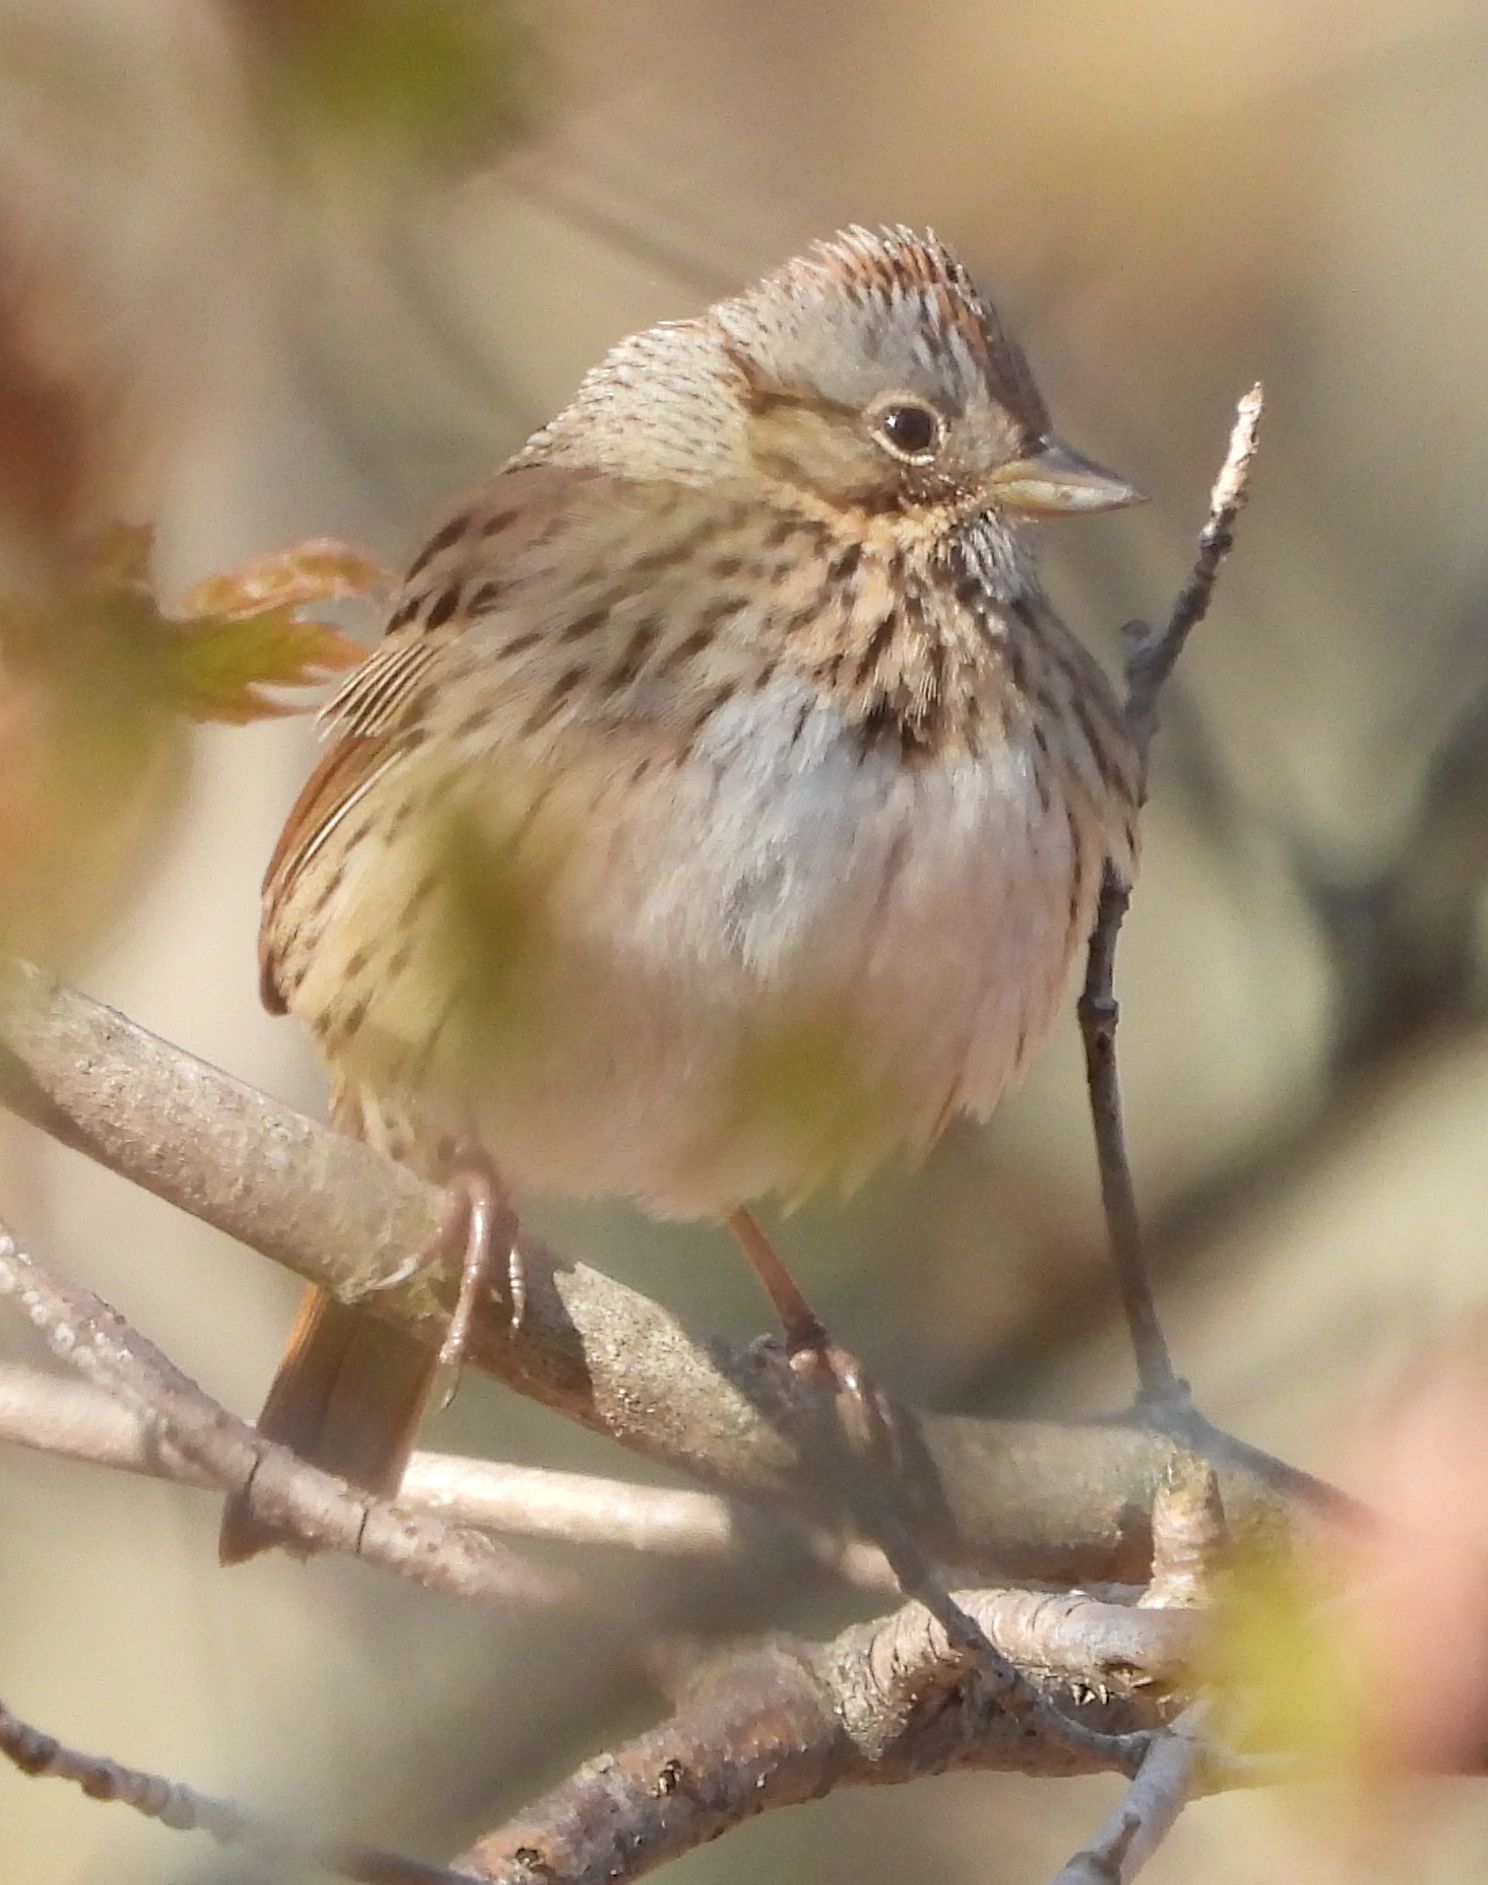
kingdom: Animalia
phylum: Chordata
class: Aves
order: Passeriformes
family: Passerellidae
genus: Melospiza
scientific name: Melospiza lincolnii
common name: Lincoln's sparrow
